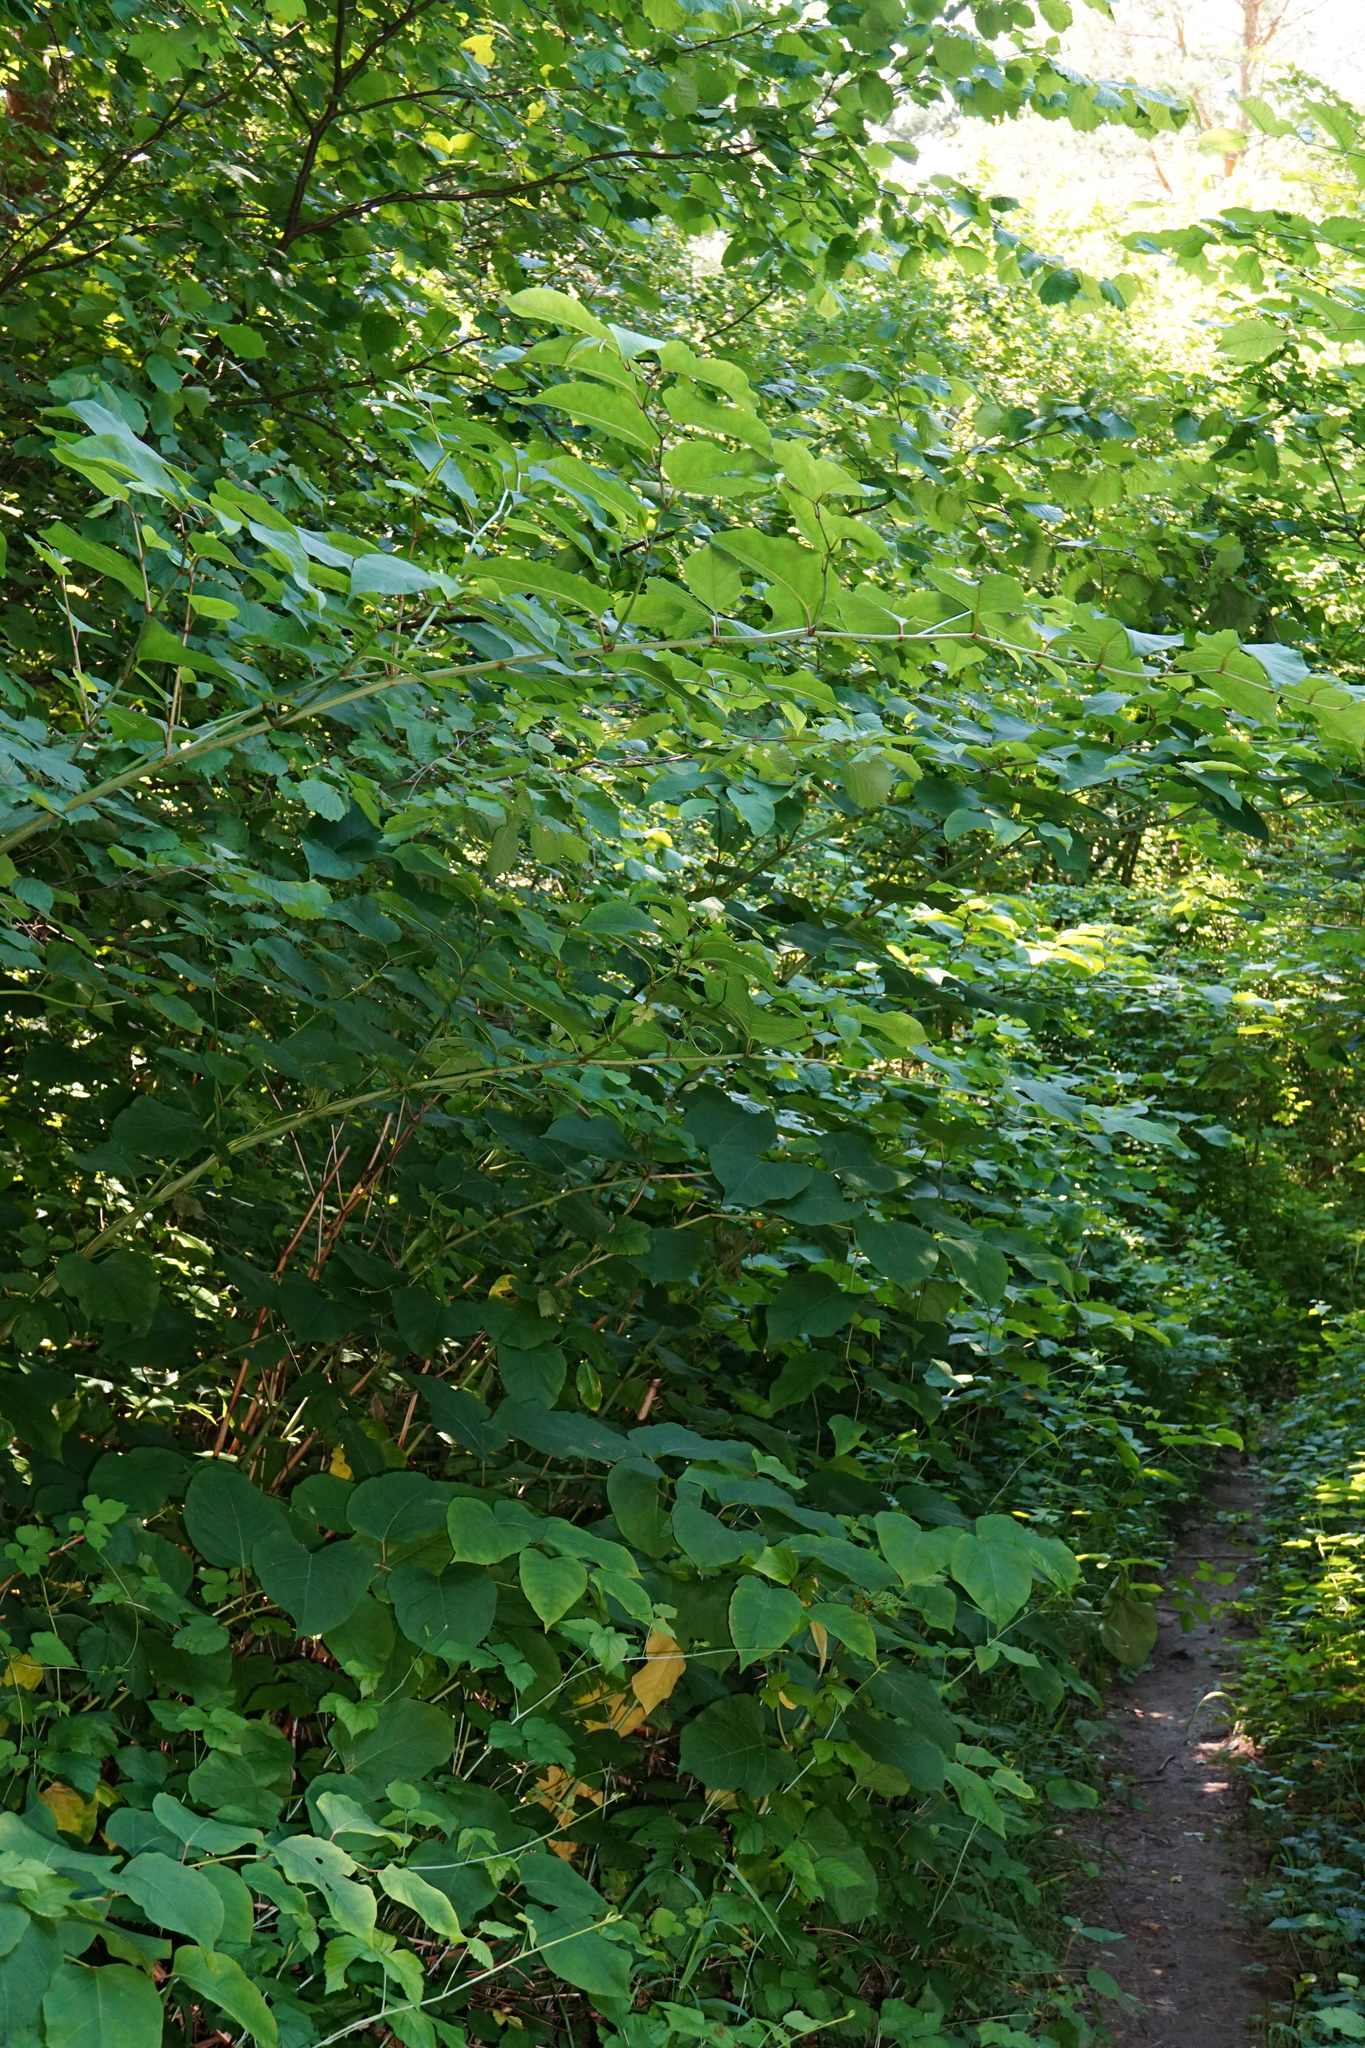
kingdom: Plantae
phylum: Tracheophyta
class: Magnoliopsida
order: Caryophyllales
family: Polygonaceae
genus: Reynoutria
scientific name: Reynoutria bohemica
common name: Bohemian knotweed
